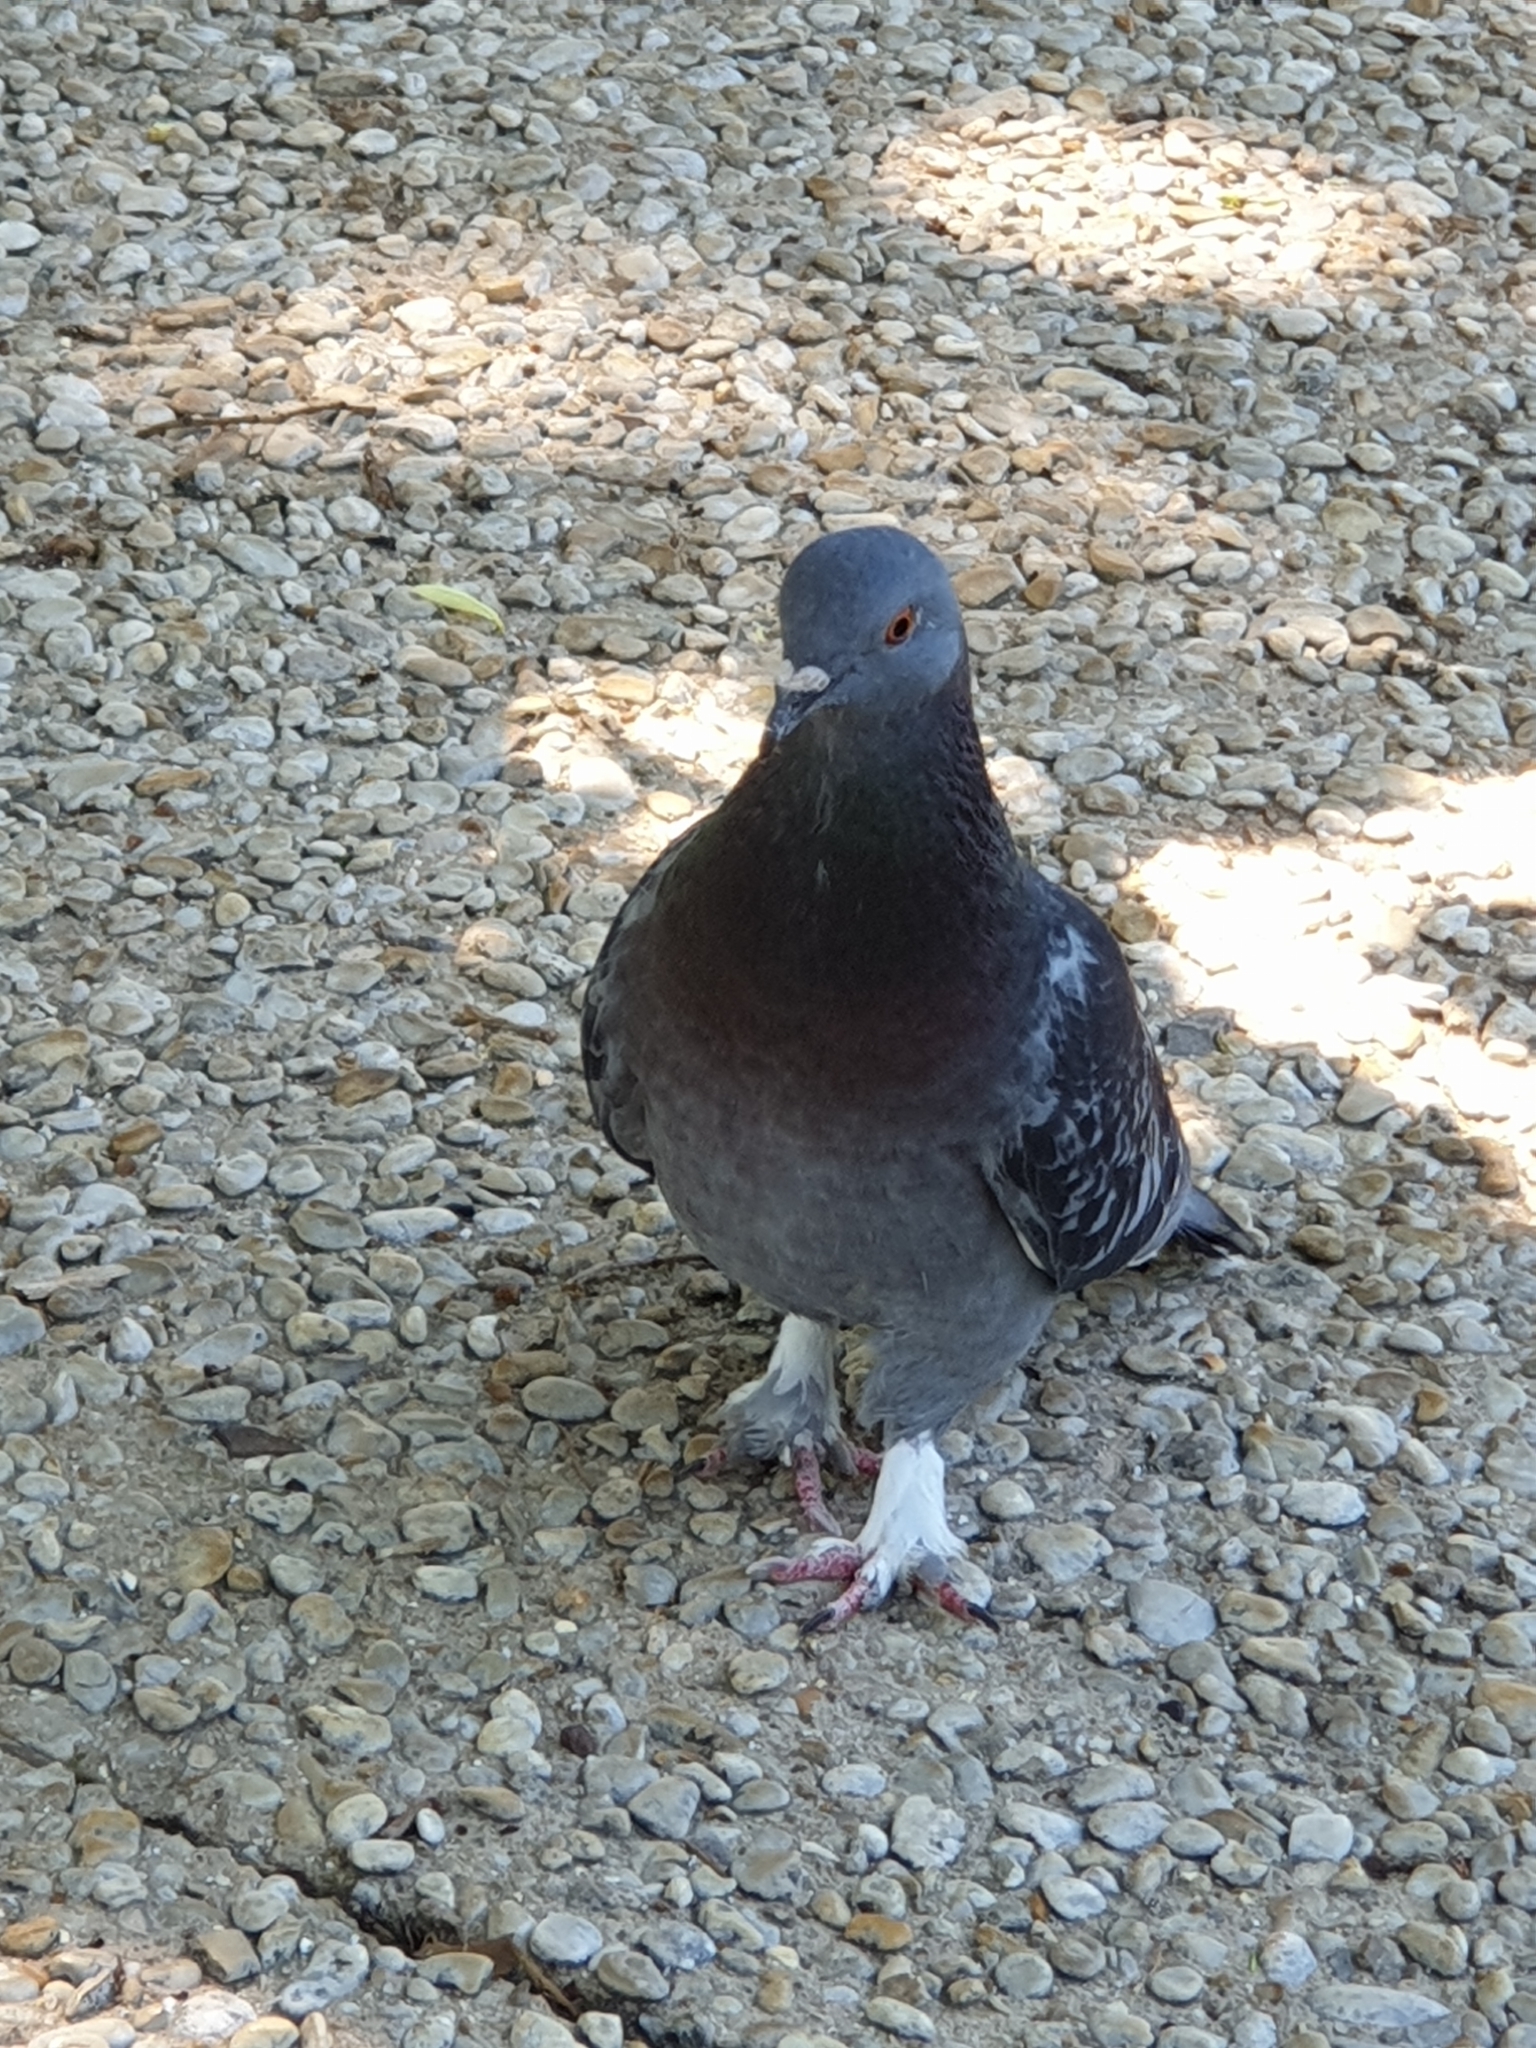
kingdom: Animalia
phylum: Chordata
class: Aves
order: Columbiformes
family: Columbidae
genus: Columba
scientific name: Columba livia
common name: Rock pigeon
